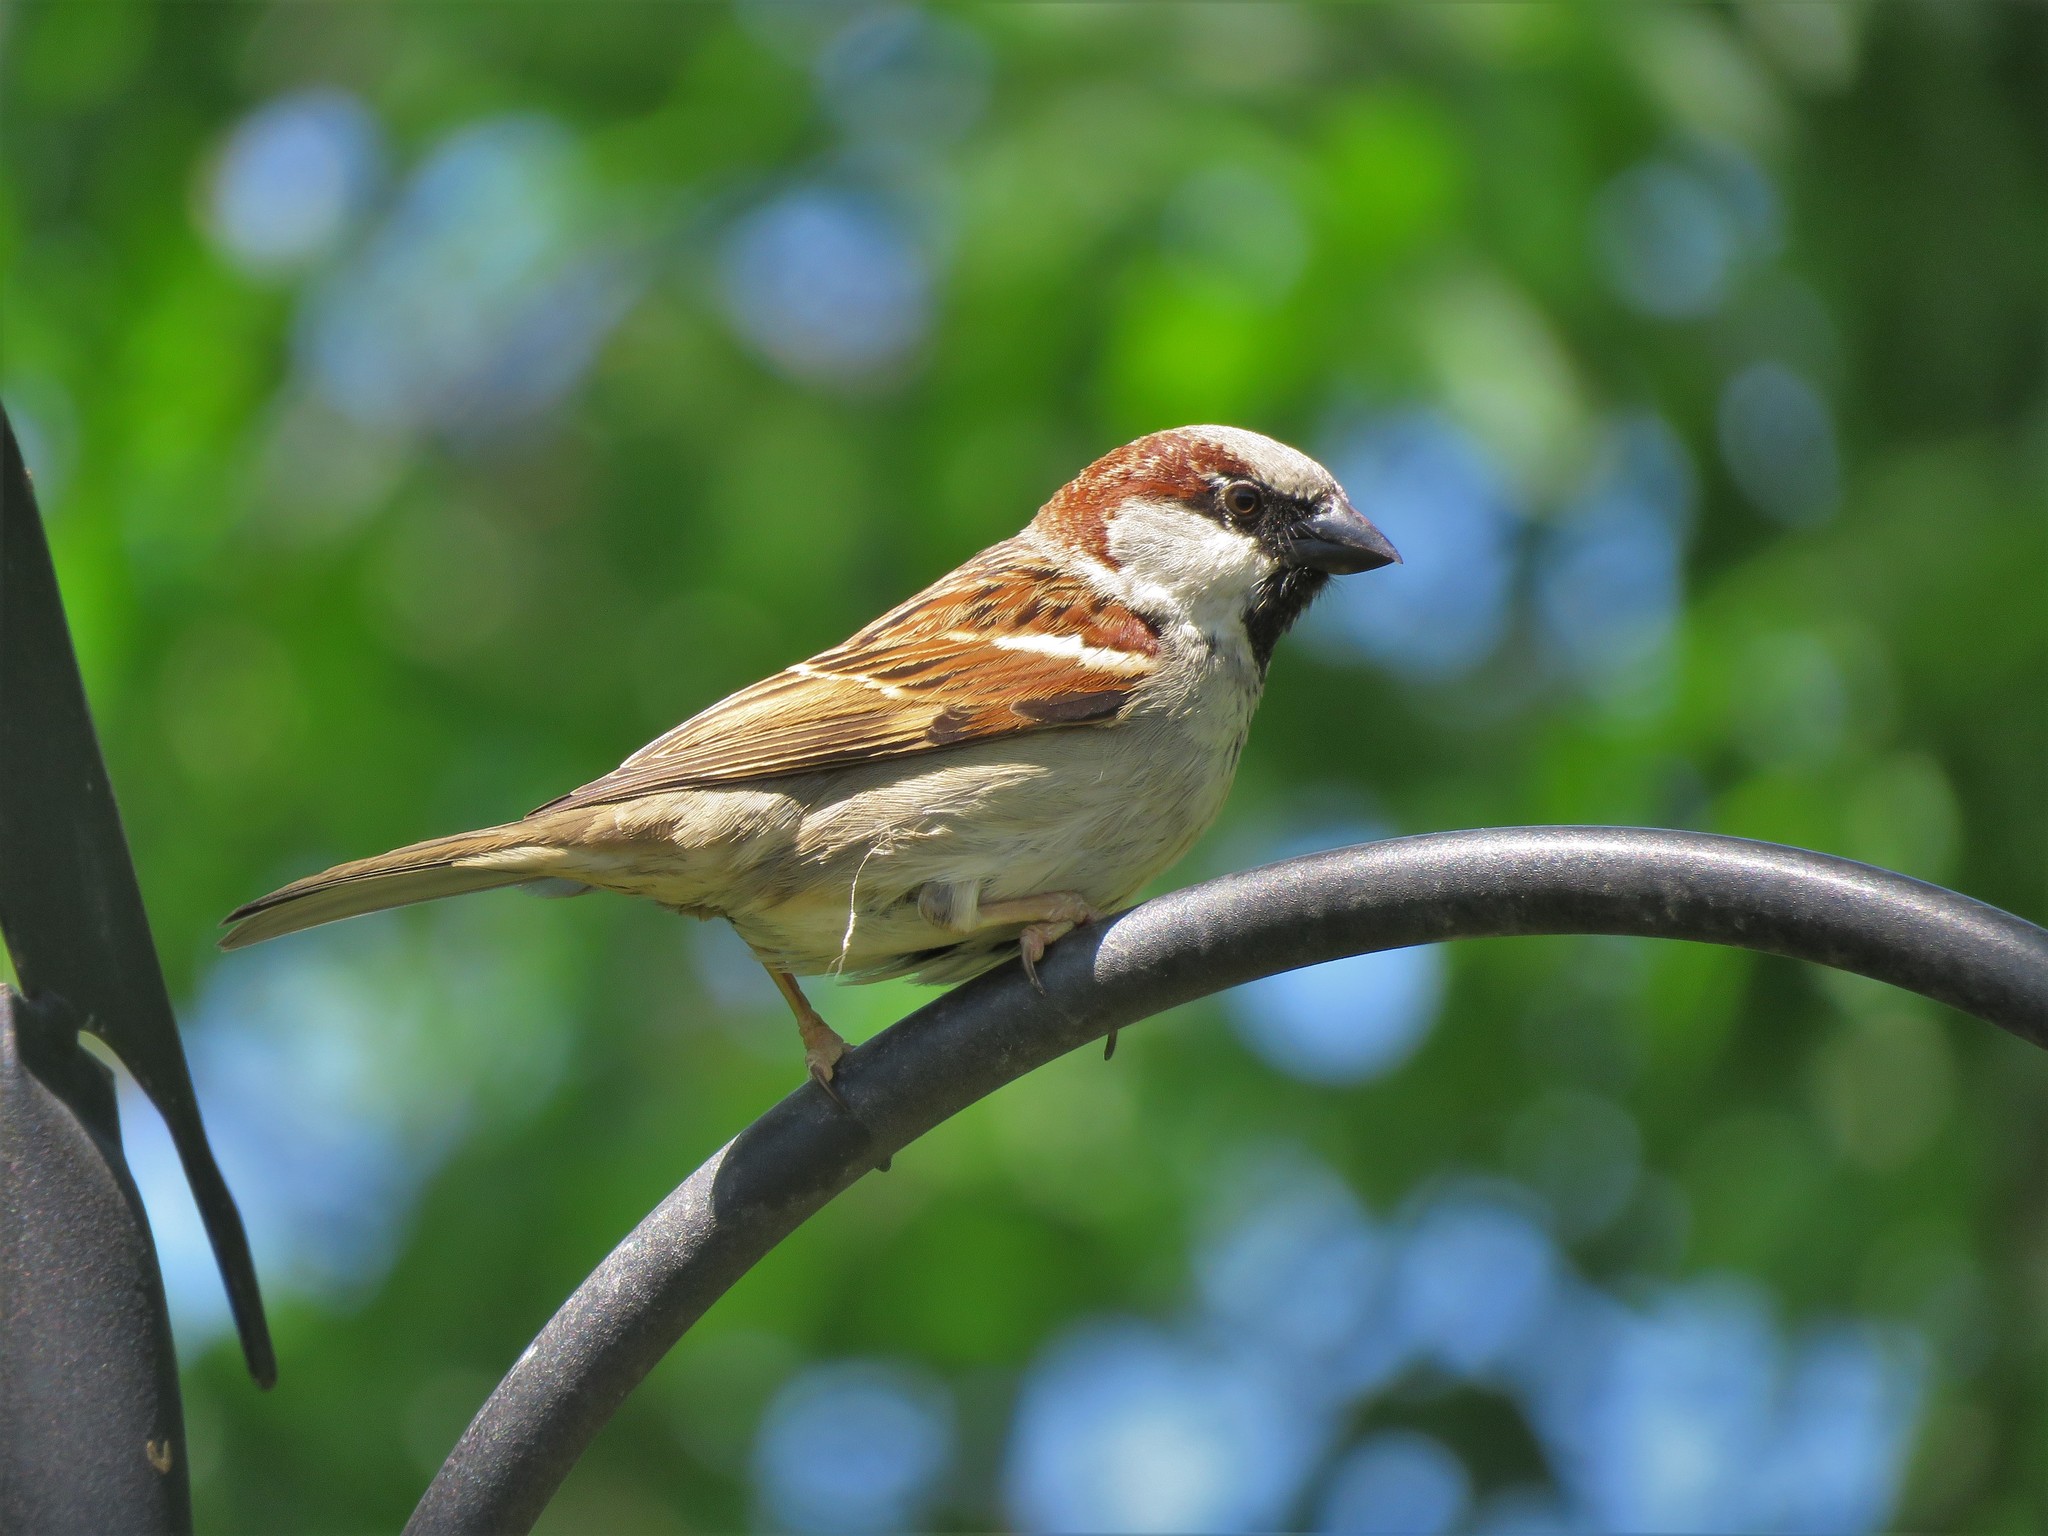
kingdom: Animalia
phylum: Chordata
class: Aves
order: Passeriformes
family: Passeridae
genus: Passer
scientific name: Passer domesticus
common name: House sparrow
